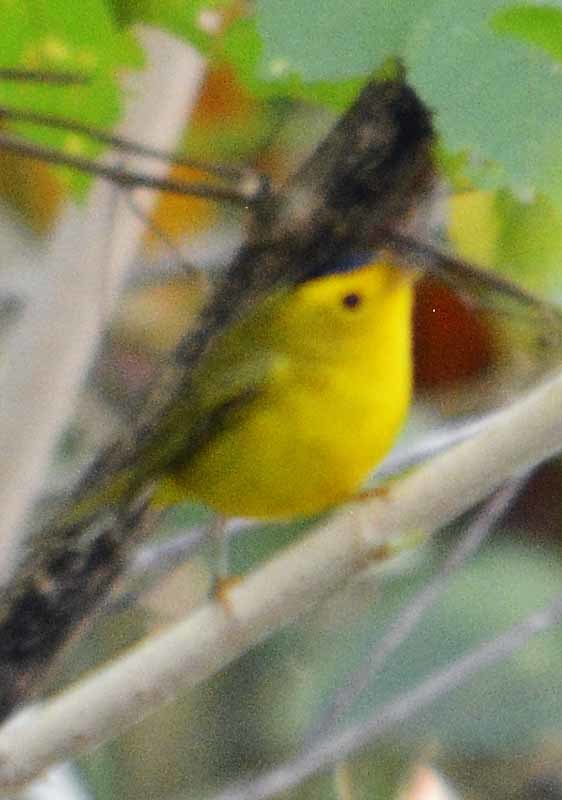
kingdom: Animalia
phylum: Chordata
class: Aves
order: Passeriformes
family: Parulidae
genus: Cardellina
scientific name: Cardellina pusilla
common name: Wilson's warbler
